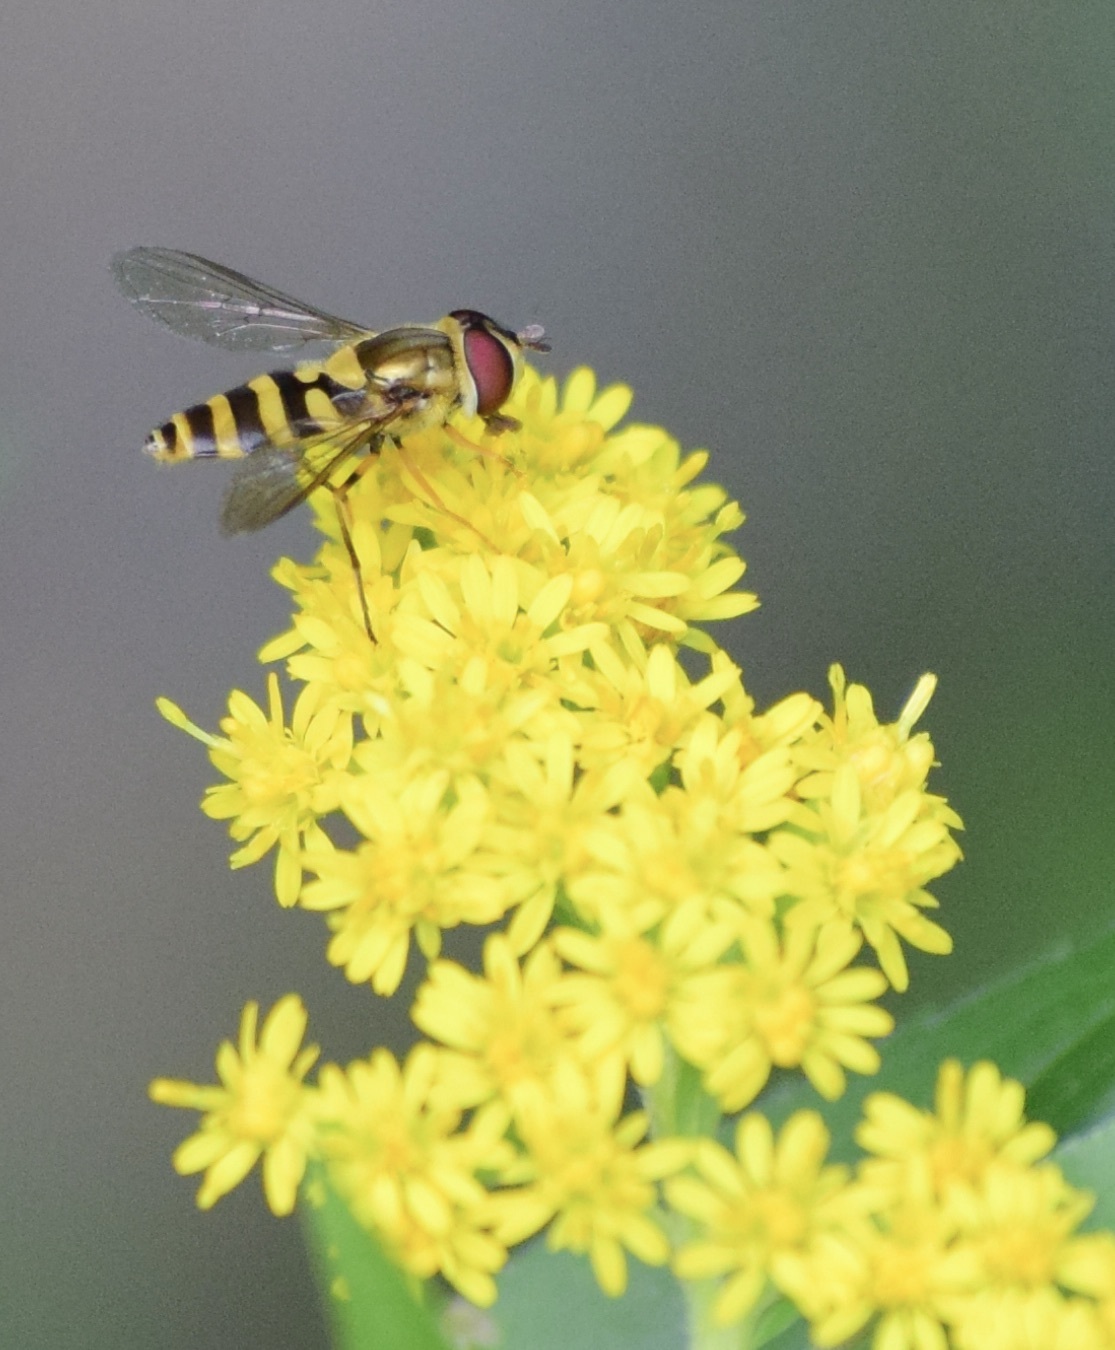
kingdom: Animalia
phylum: Arthropoda
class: Insecta
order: Diptera
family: Syrphidae
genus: Syrphus
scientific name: Syrphus rectus
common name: Yellow-legged flower fly
